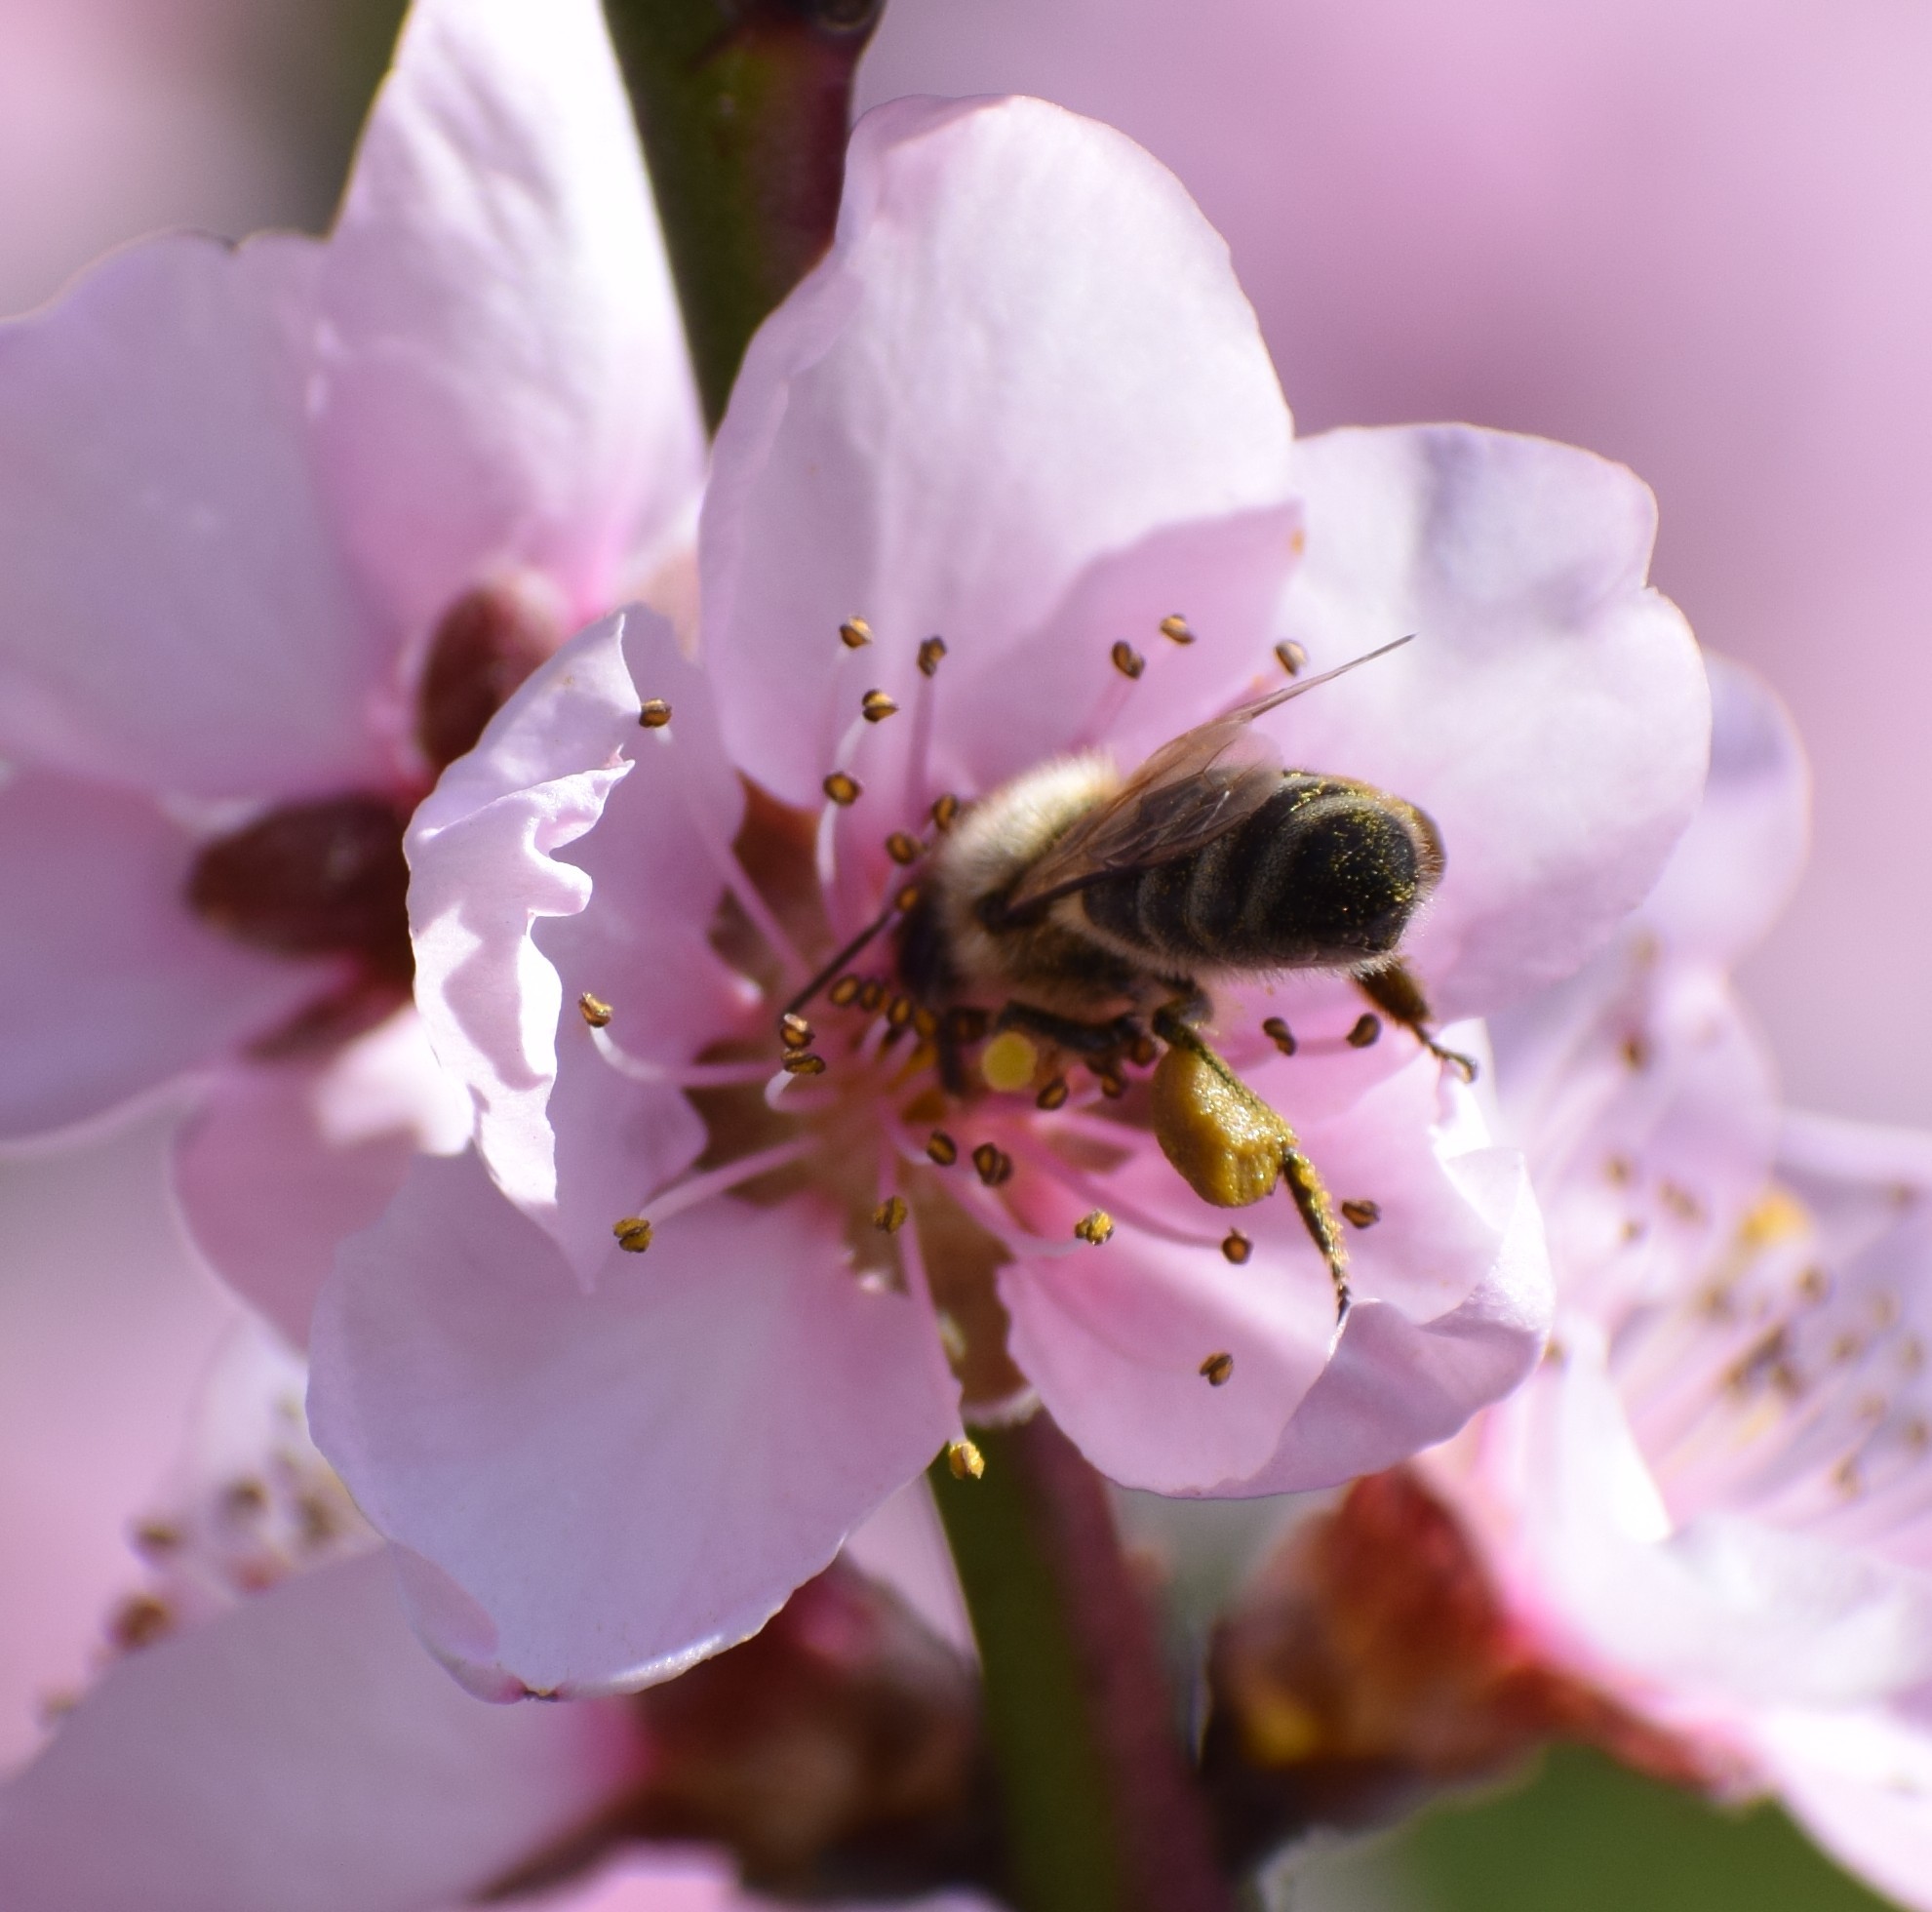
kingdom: Animalia
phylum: Arthropoda
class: Insecta
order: Hymenoptera
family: Apidae
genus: Apis
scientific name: Apis mellifera
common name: Honey bee
